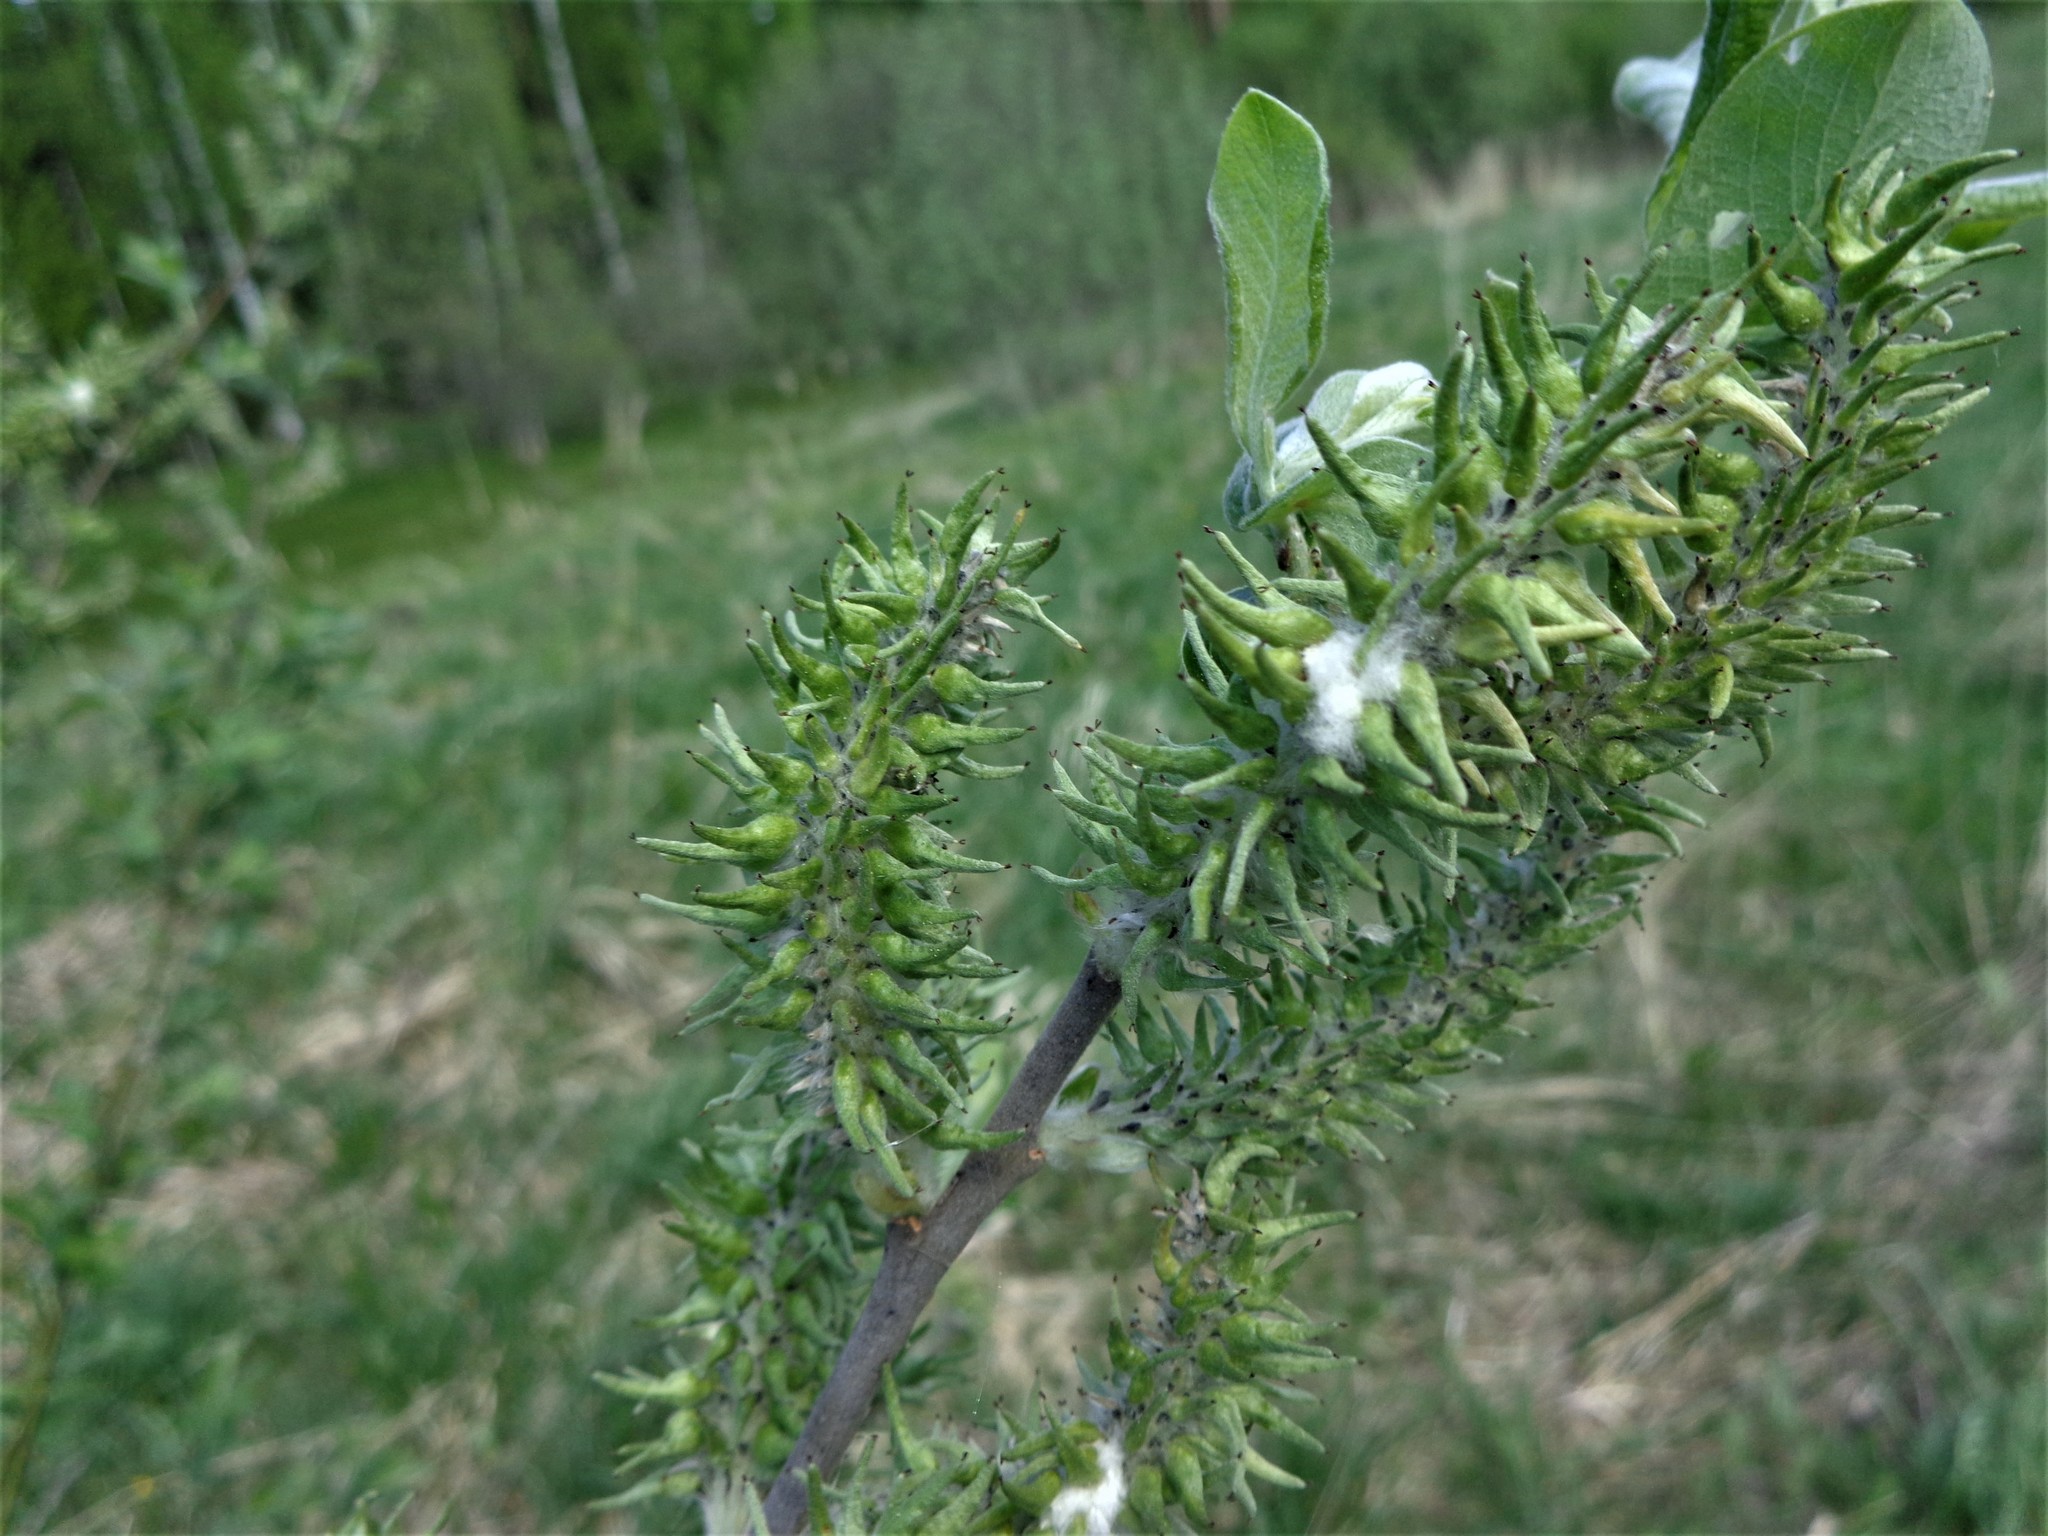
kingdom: Plantae
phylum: Tracheophyta
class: Magnoliopsida
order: Malpighiales
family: Salicaceae
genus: Salix
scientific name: Salix cinerea
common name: Common sallow
